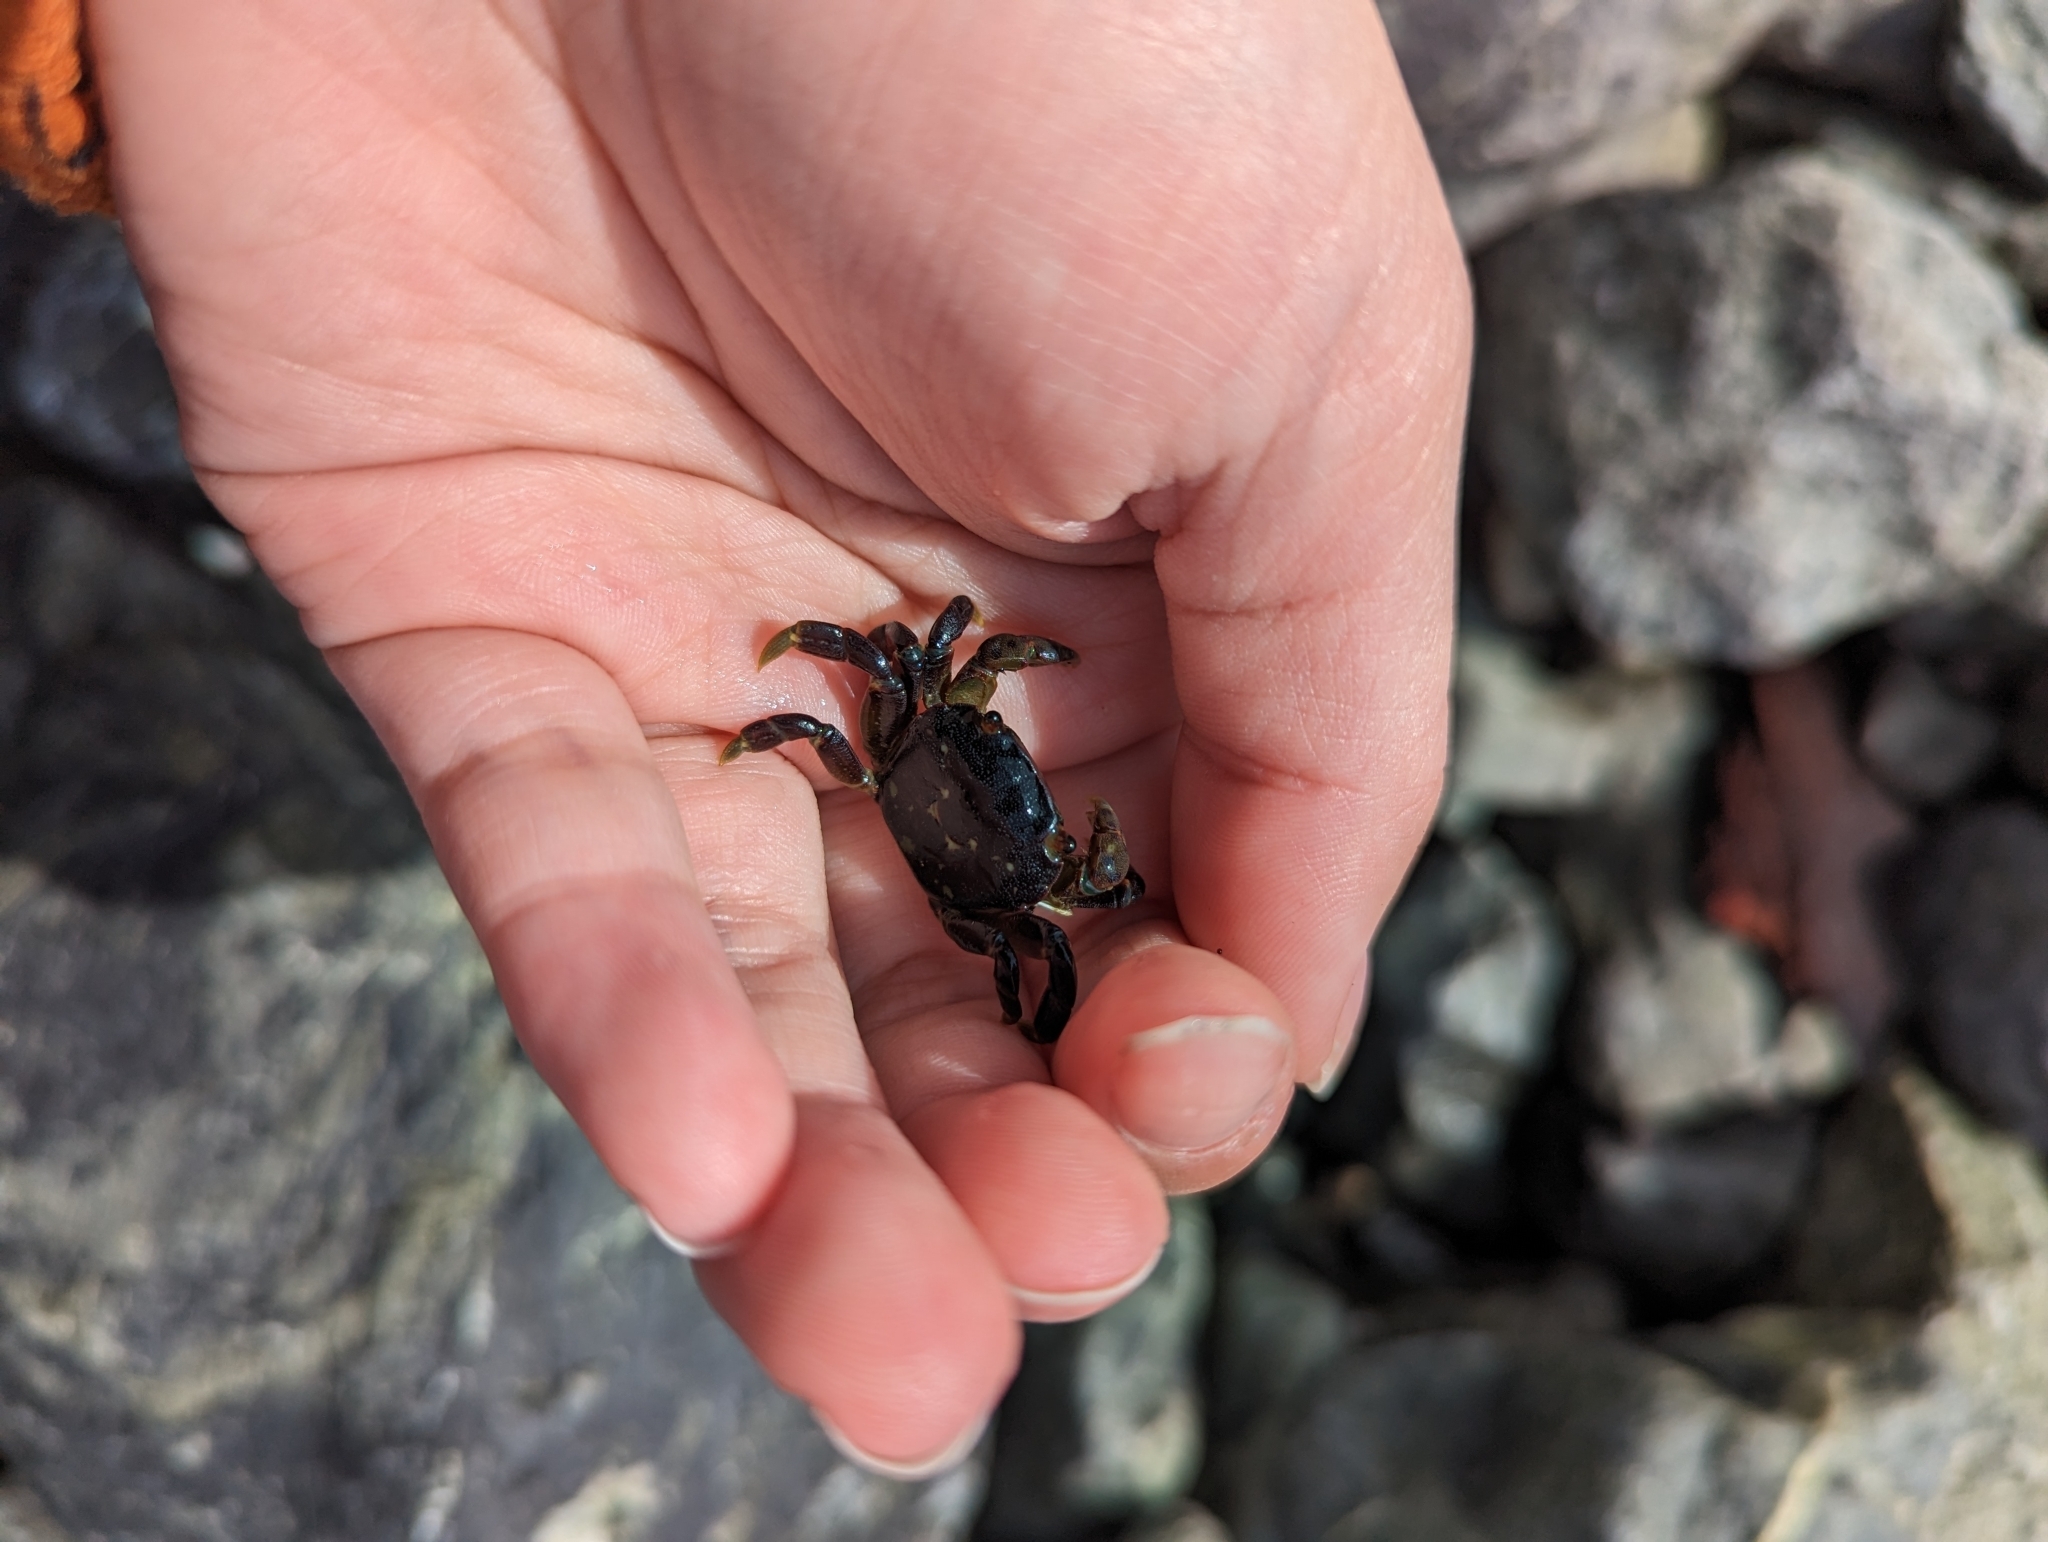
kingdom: Animalia
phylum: Arthropoda
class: Malacostraca
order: Decapoda
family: Varunidae
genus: Hemigrapsus
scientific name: Hemigrapsus nudus
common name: Purple shore crab
